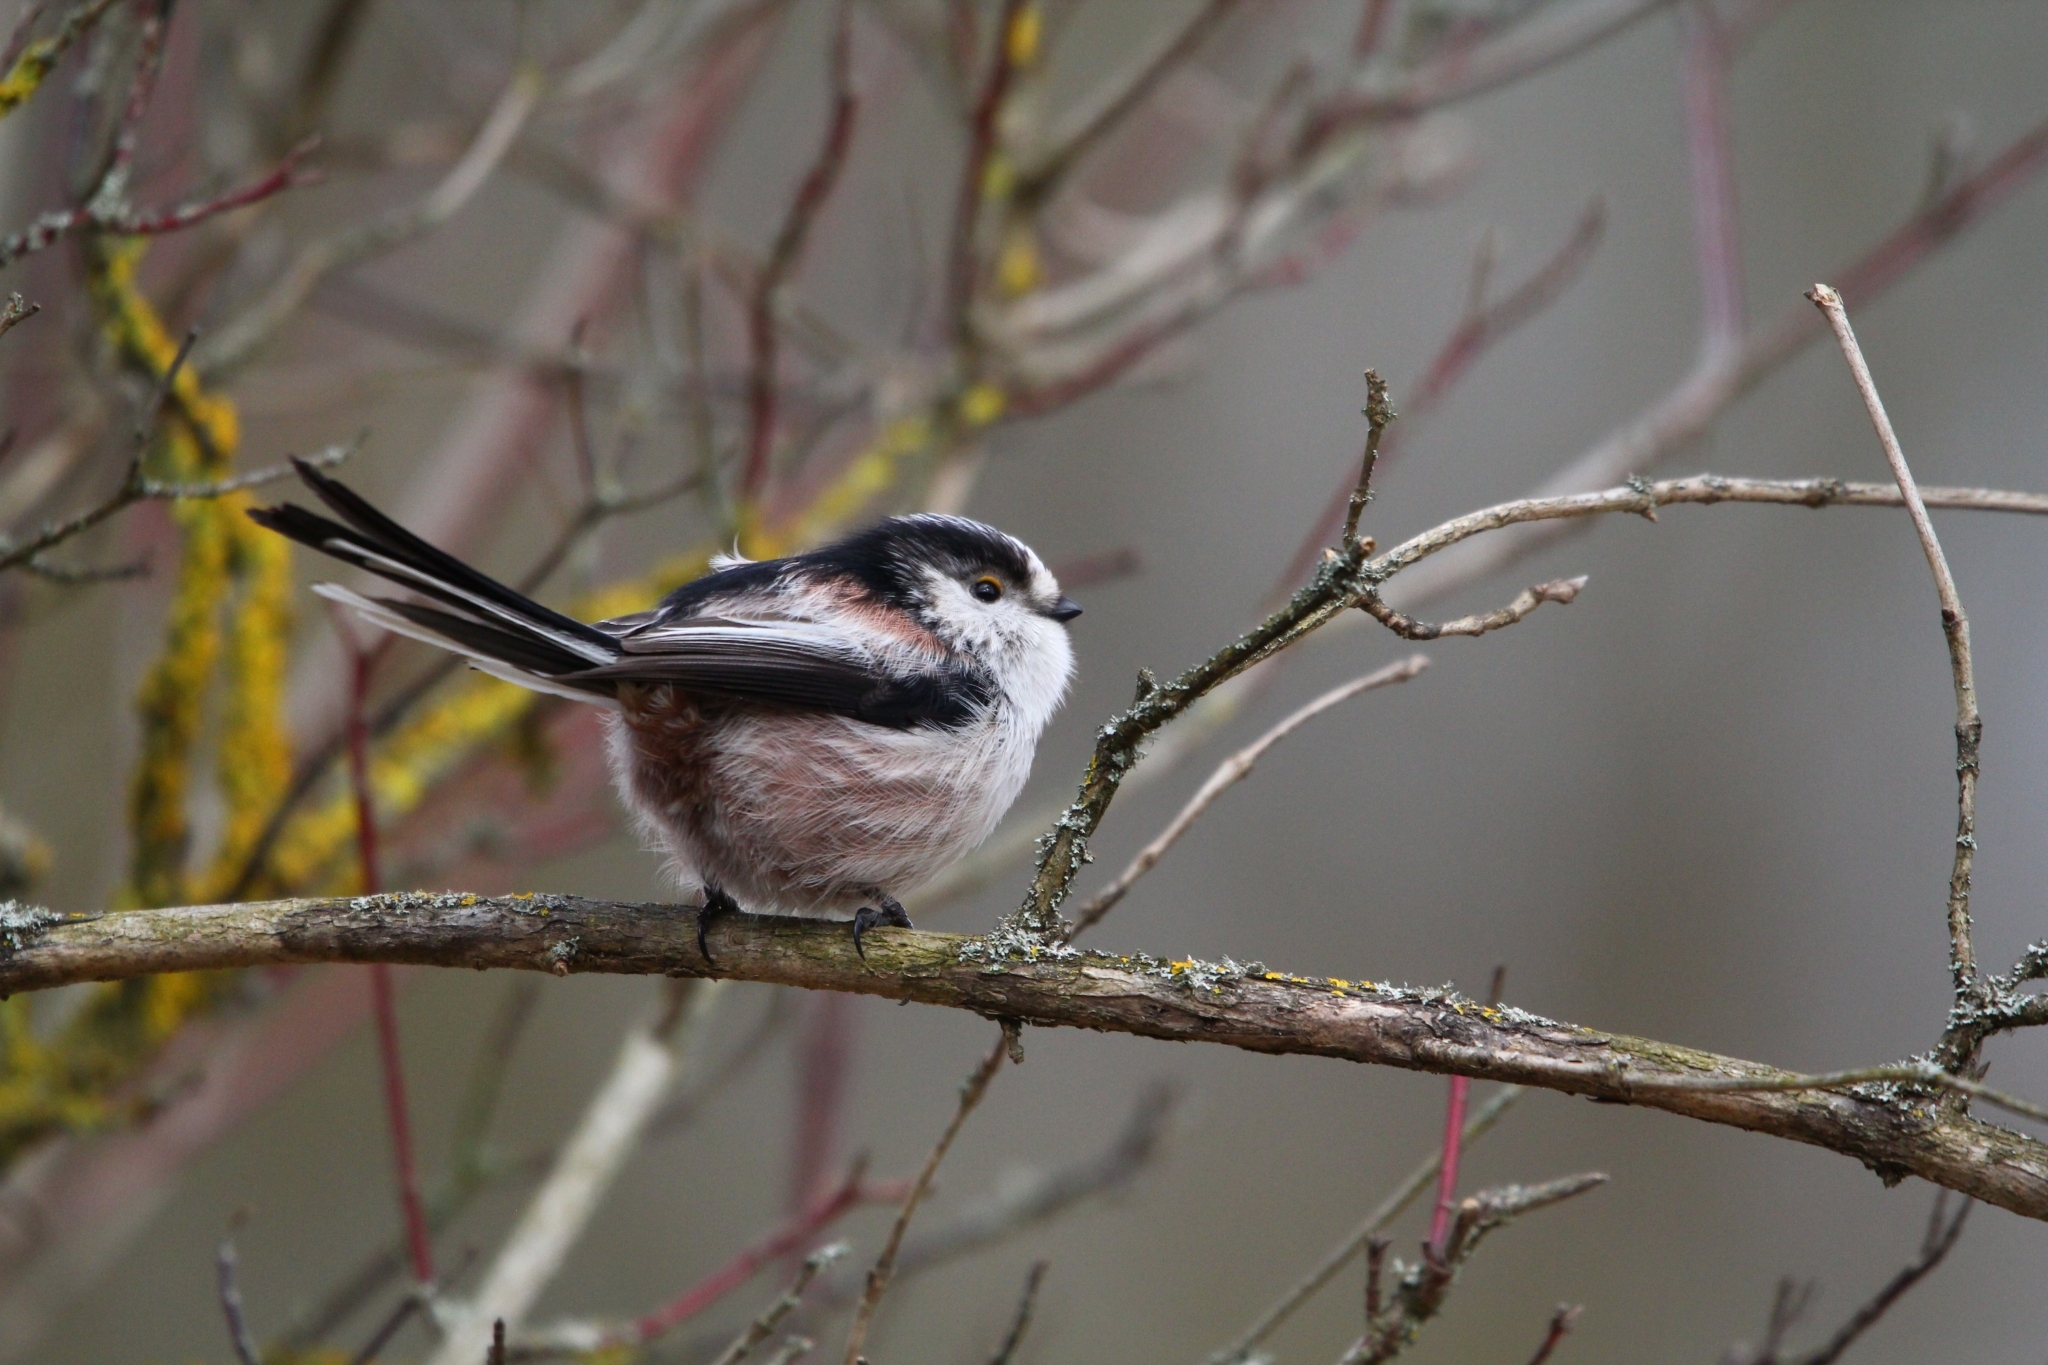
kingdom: Animalia
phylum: Chordata
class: Aves
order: Passeriformes
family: Aegithalidae
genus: Aegithalos
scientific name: Aegithalos caudatus
